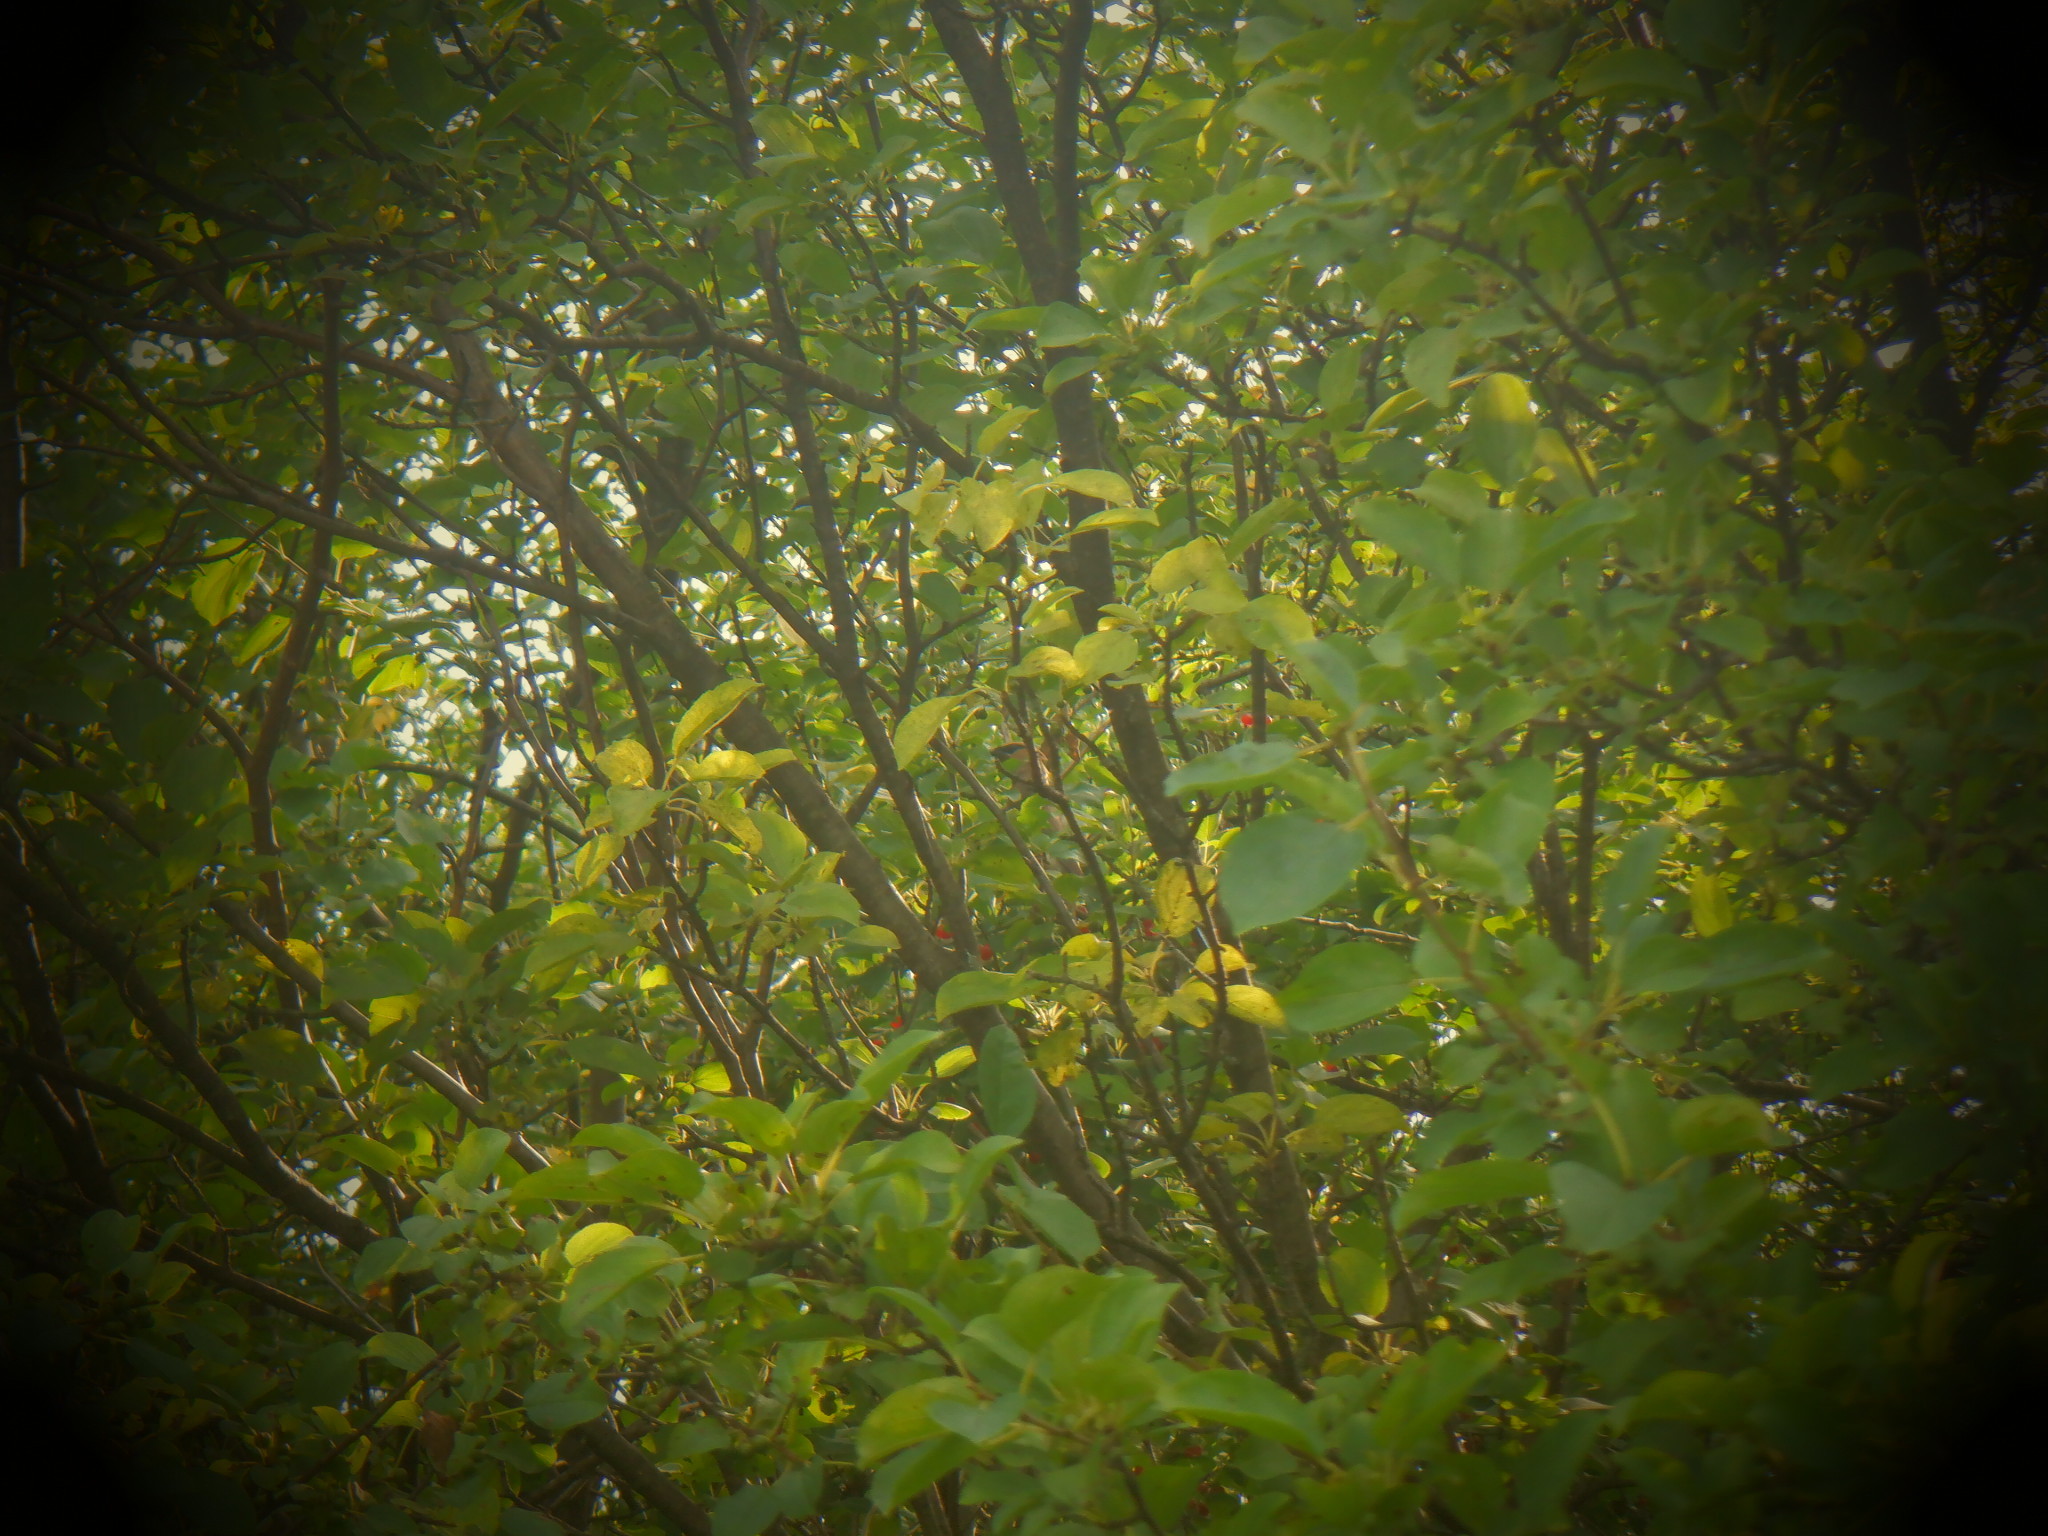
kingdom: Animalia
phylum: Chordata
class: Aves
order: Passeriformes
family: Bombycillidae
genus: Bombycilla
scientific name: Bombycilla cedrorum
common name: Cedar waxwing
